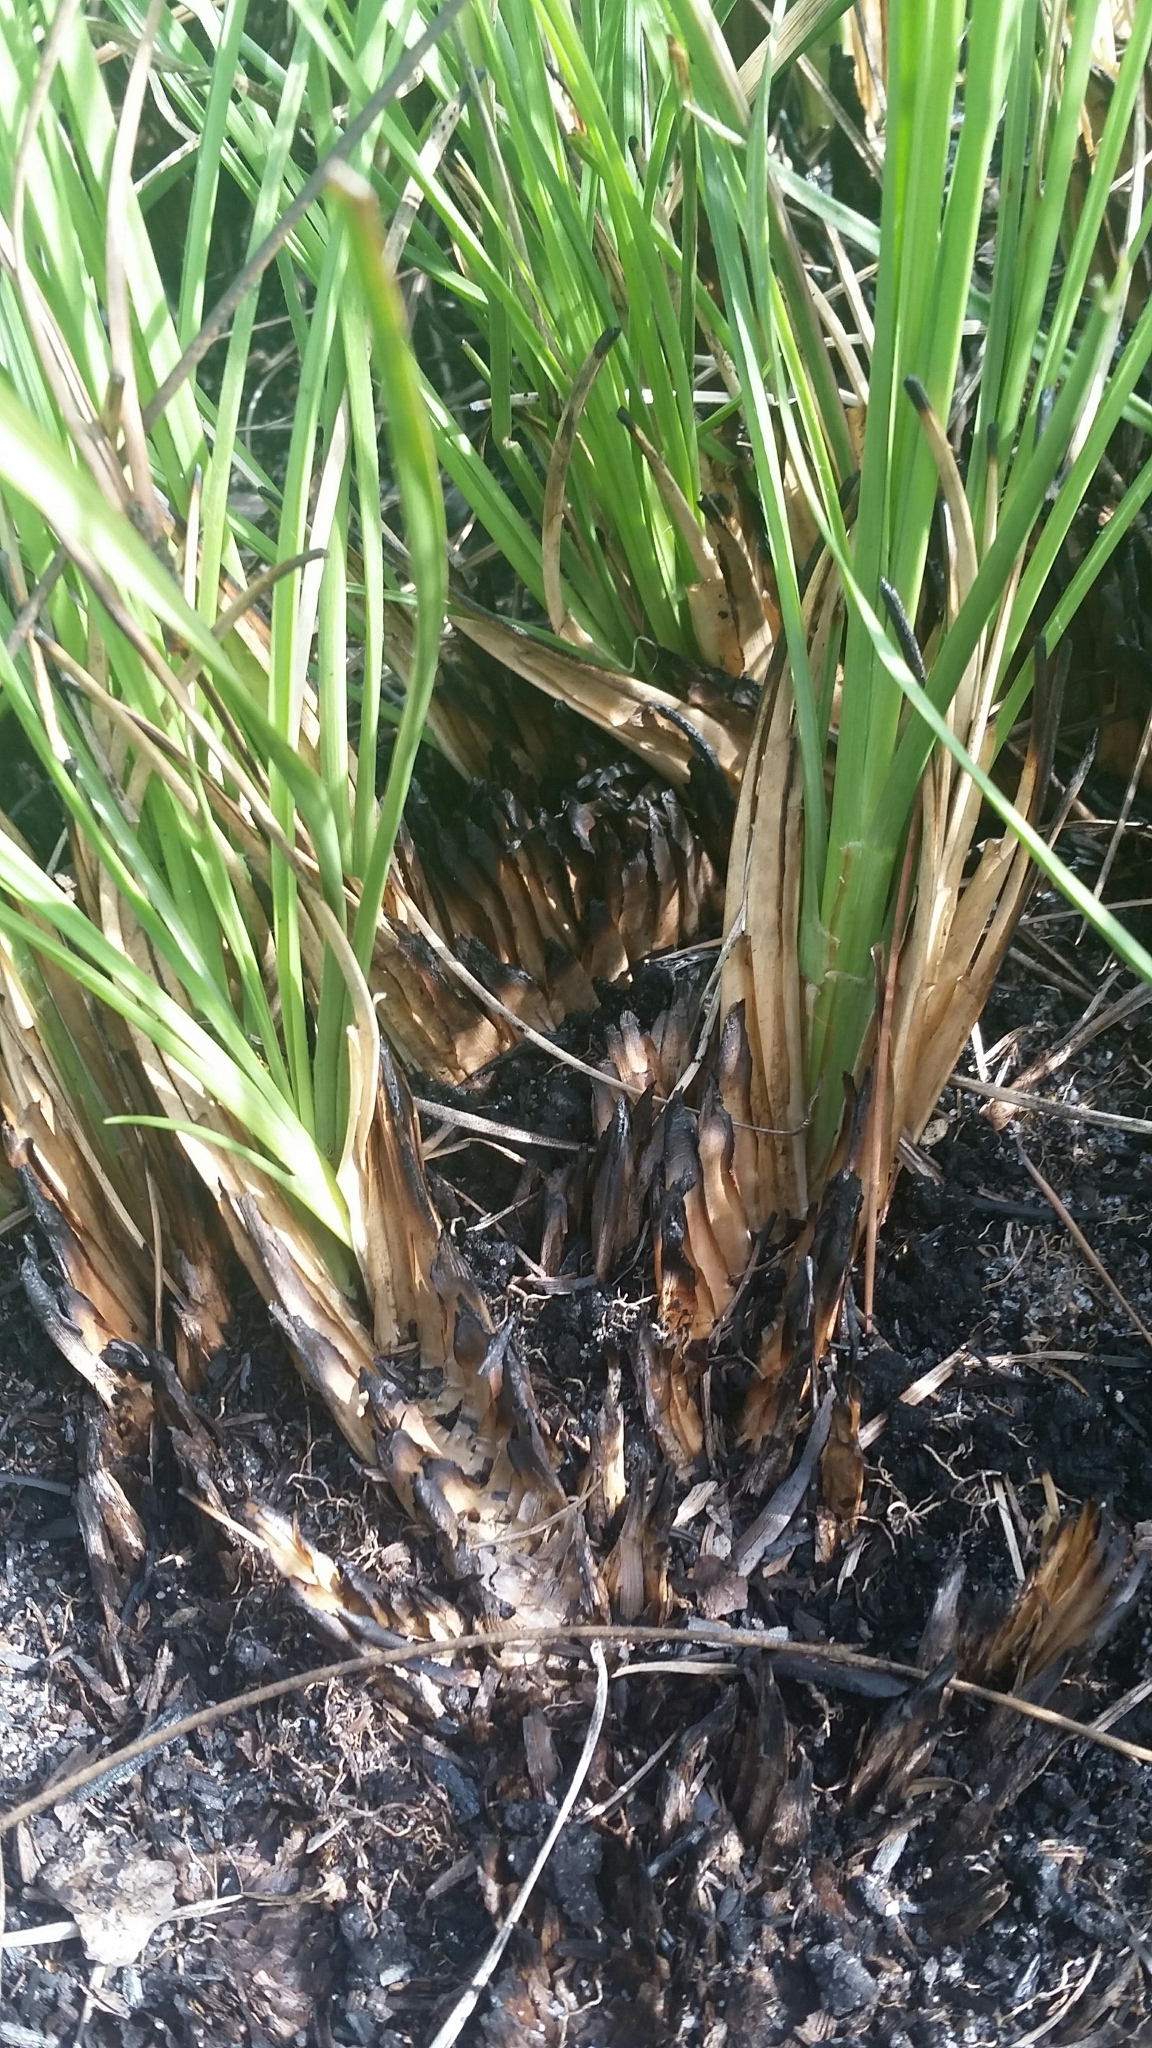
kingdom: Plantae
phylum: Tracheophyta
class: Liliopsida
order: Poales
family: Poaceae
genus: Coleataenia
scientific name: Coleataenia abscissa
